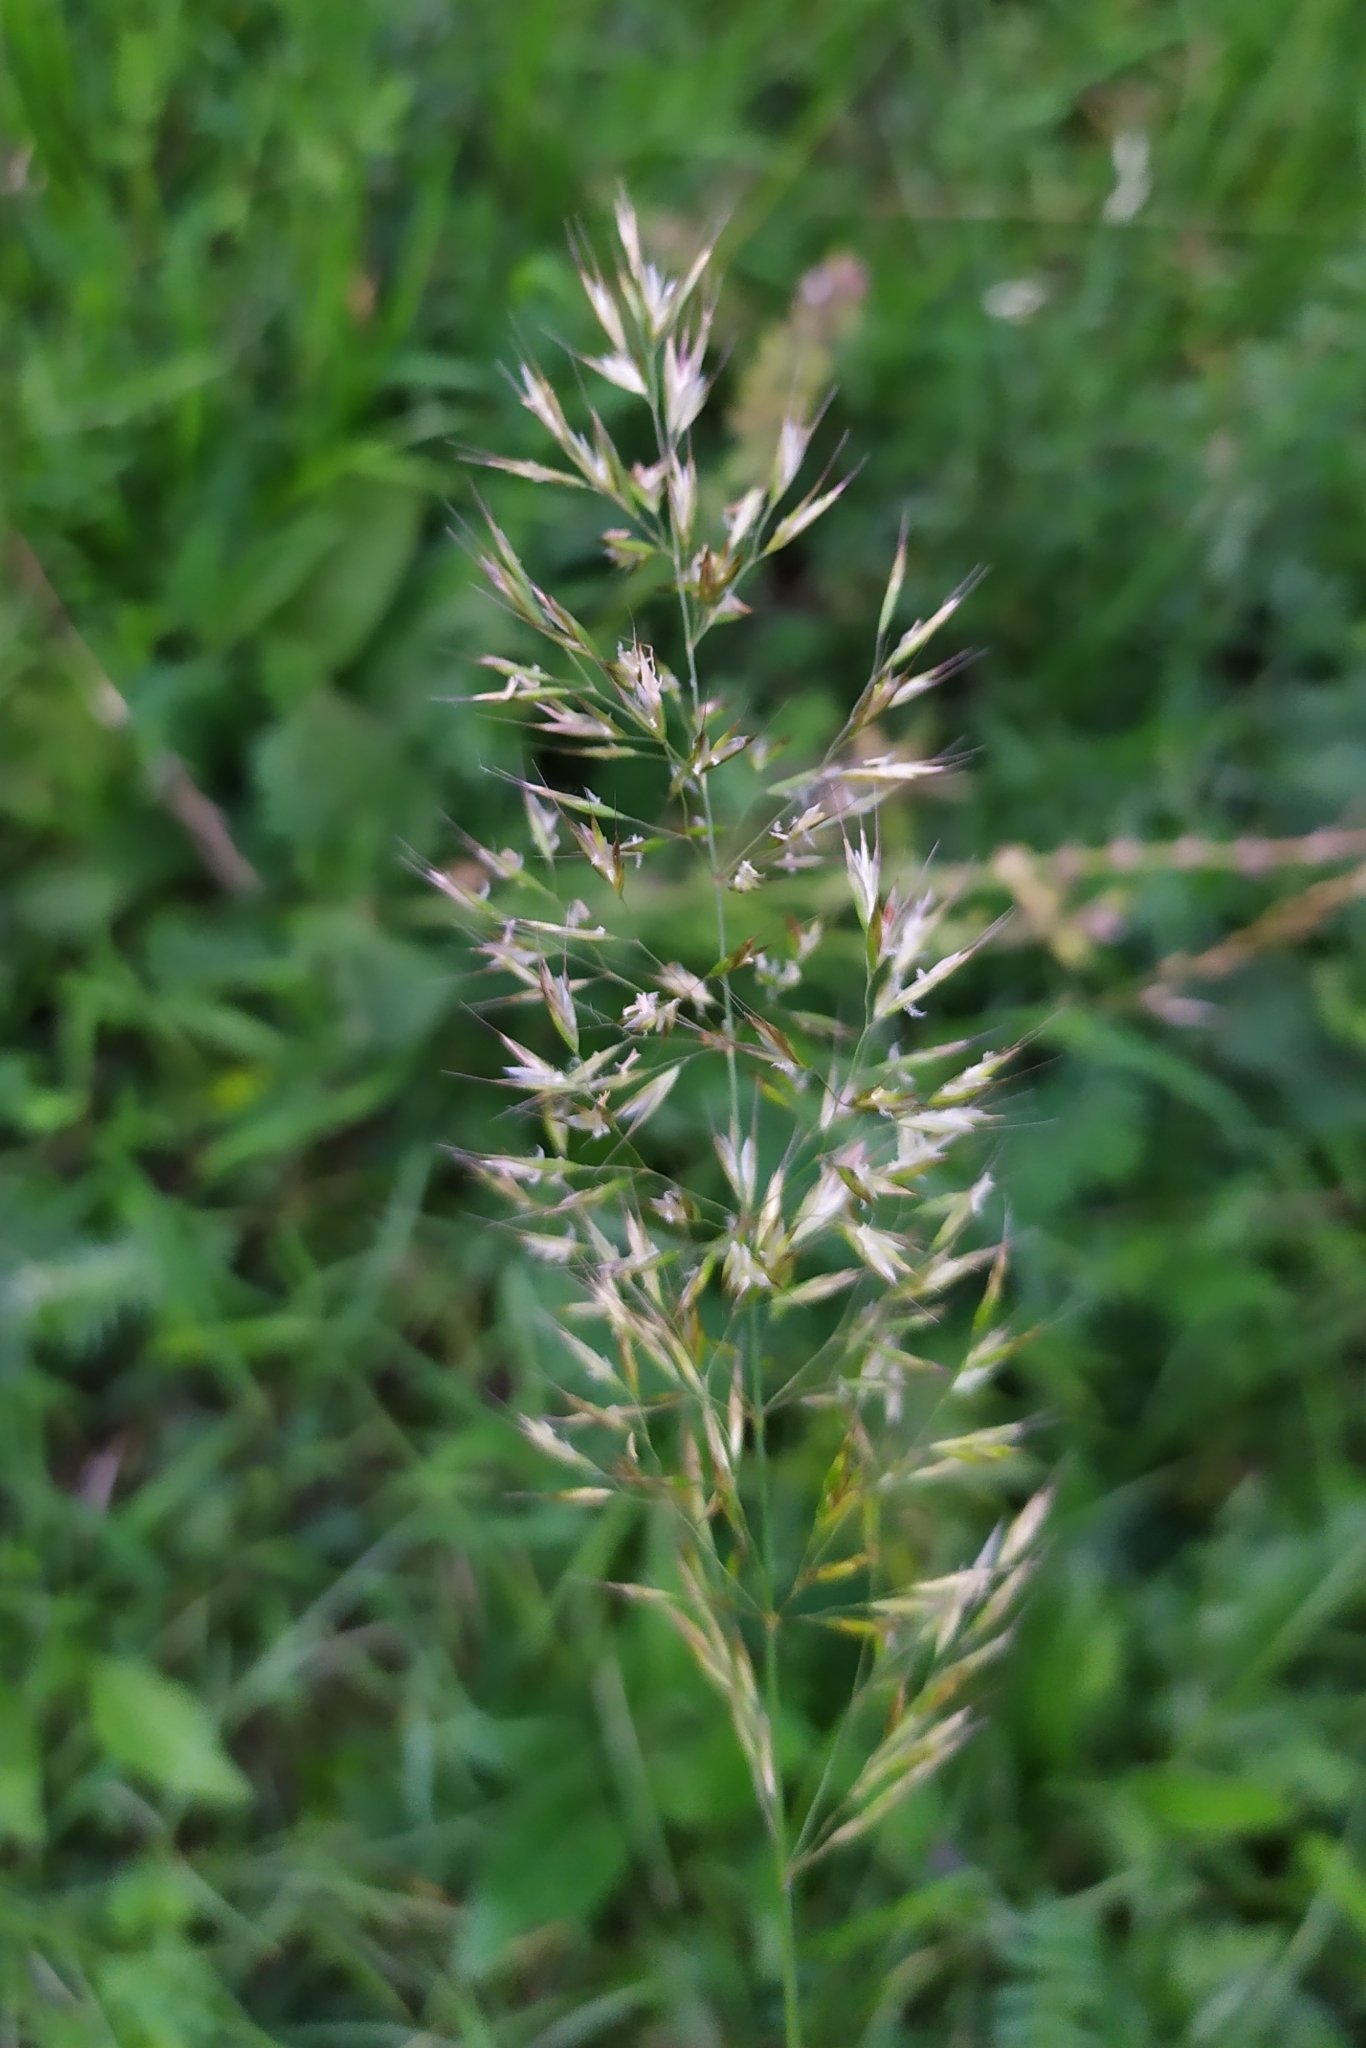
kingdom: Plantae
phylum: Tracheophyta
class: Liliopsida
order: Poales
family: Poaceae
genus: Trisetum
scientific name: Trisetum flavescens
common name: Yellow oat-grass
